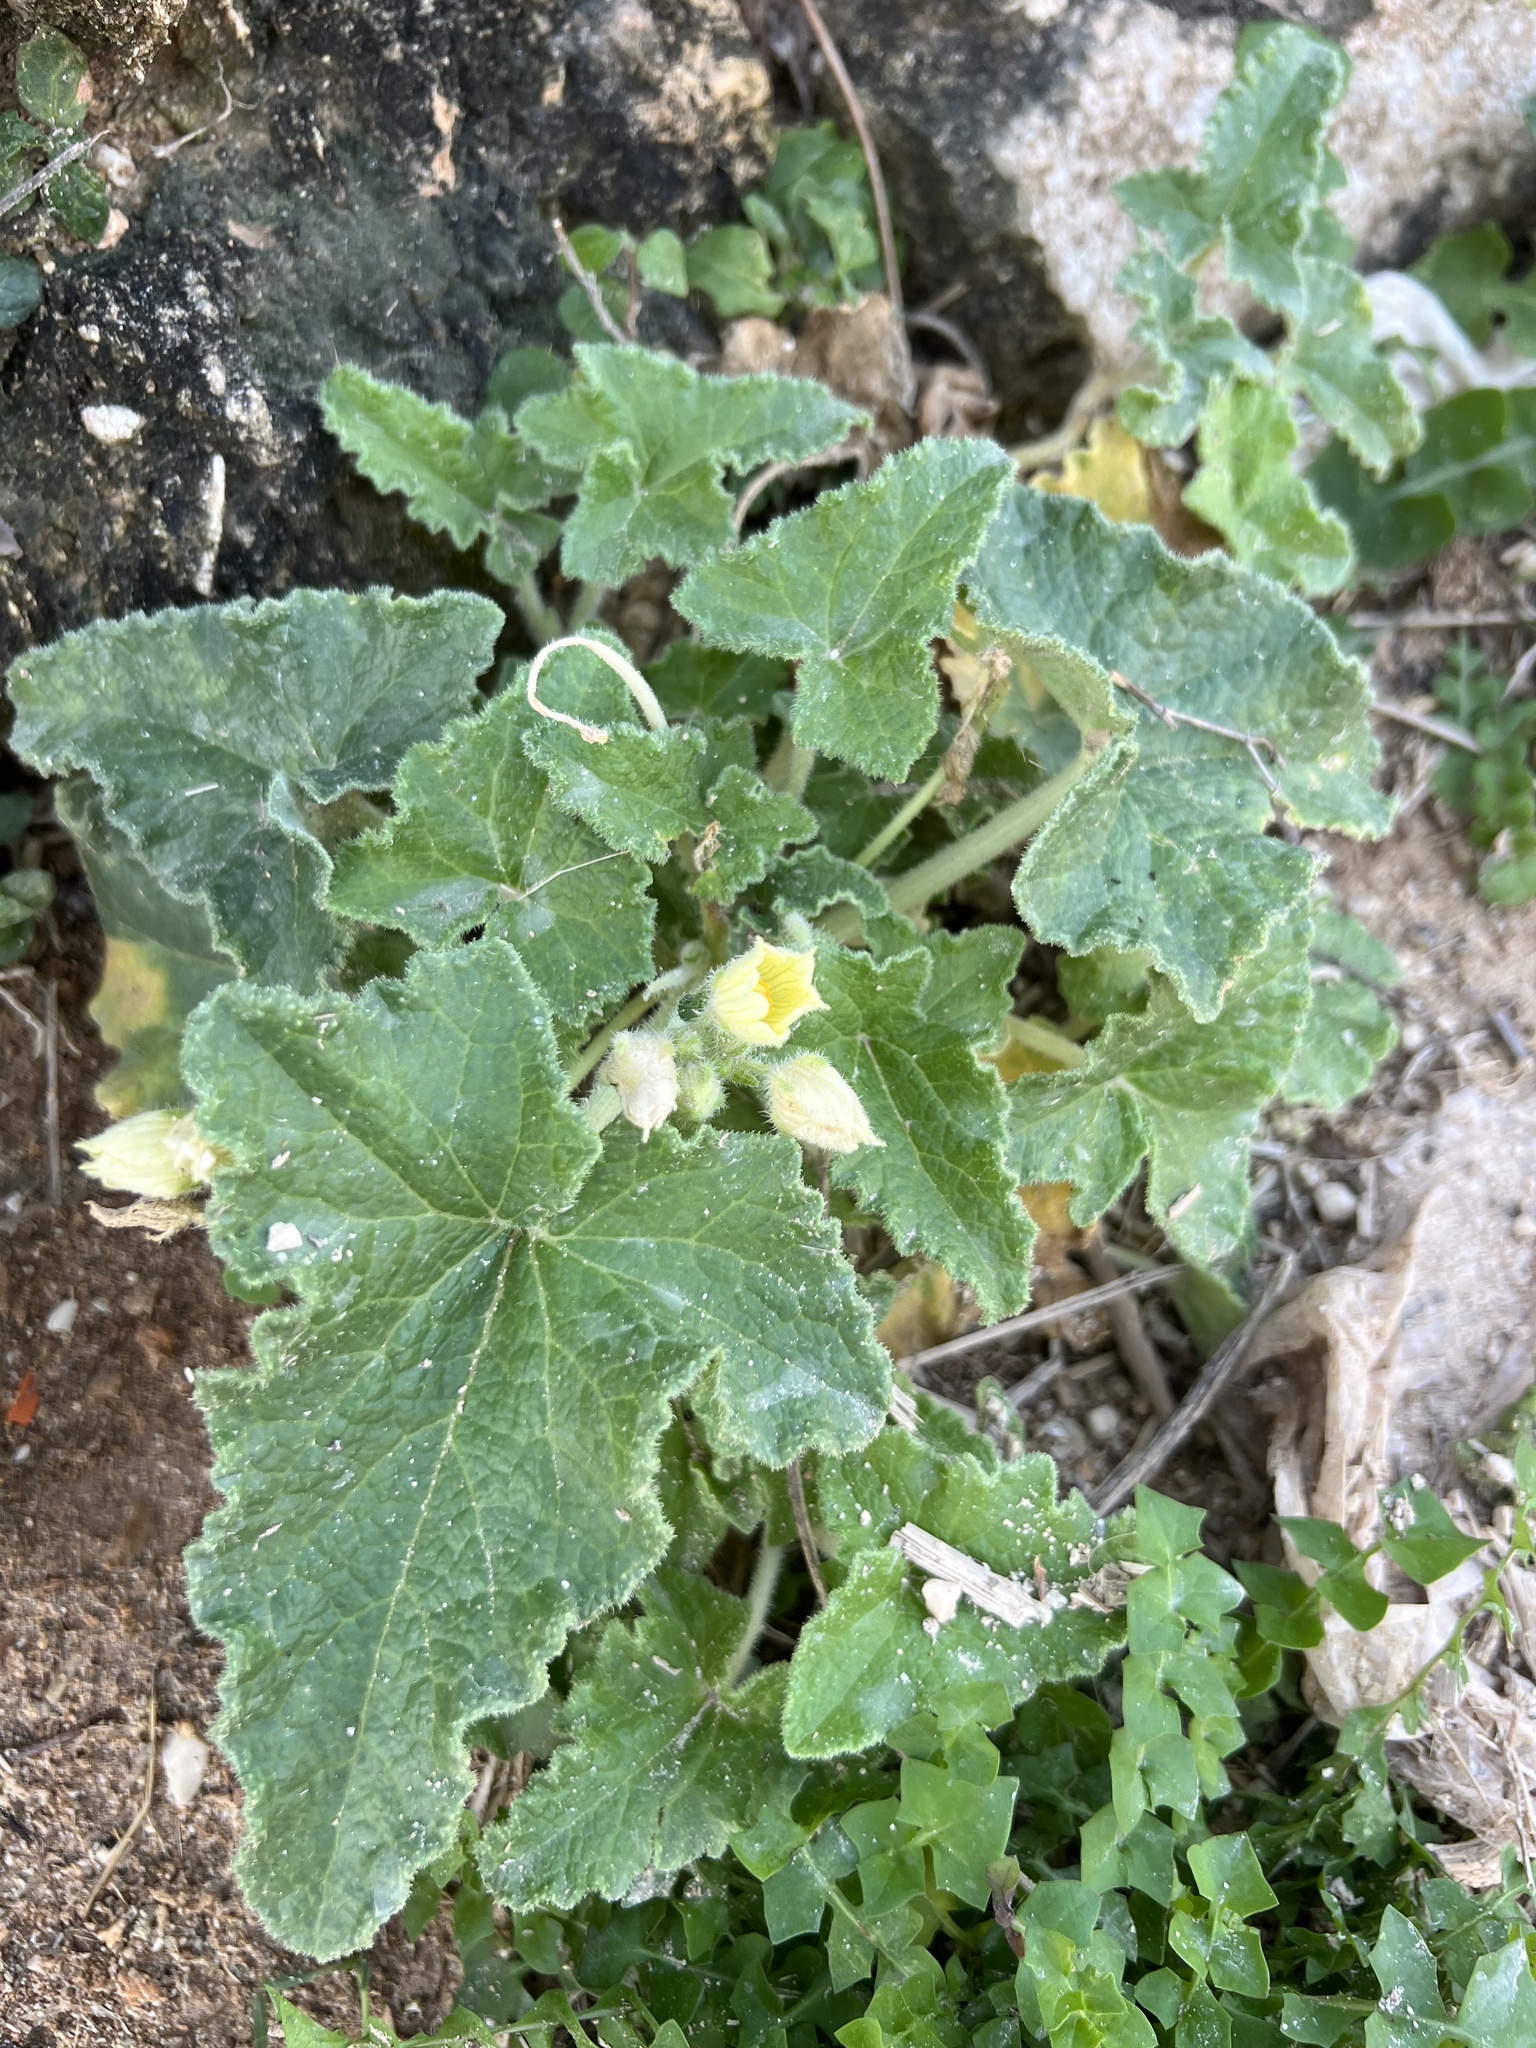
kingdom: Plantae
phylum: Tracheophyta
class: Magnoliopsida
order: Cucurbitales
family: Cucurbitaceae
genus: Ecballium
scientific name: Ecballium elaterium
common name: Squirting cucumber
